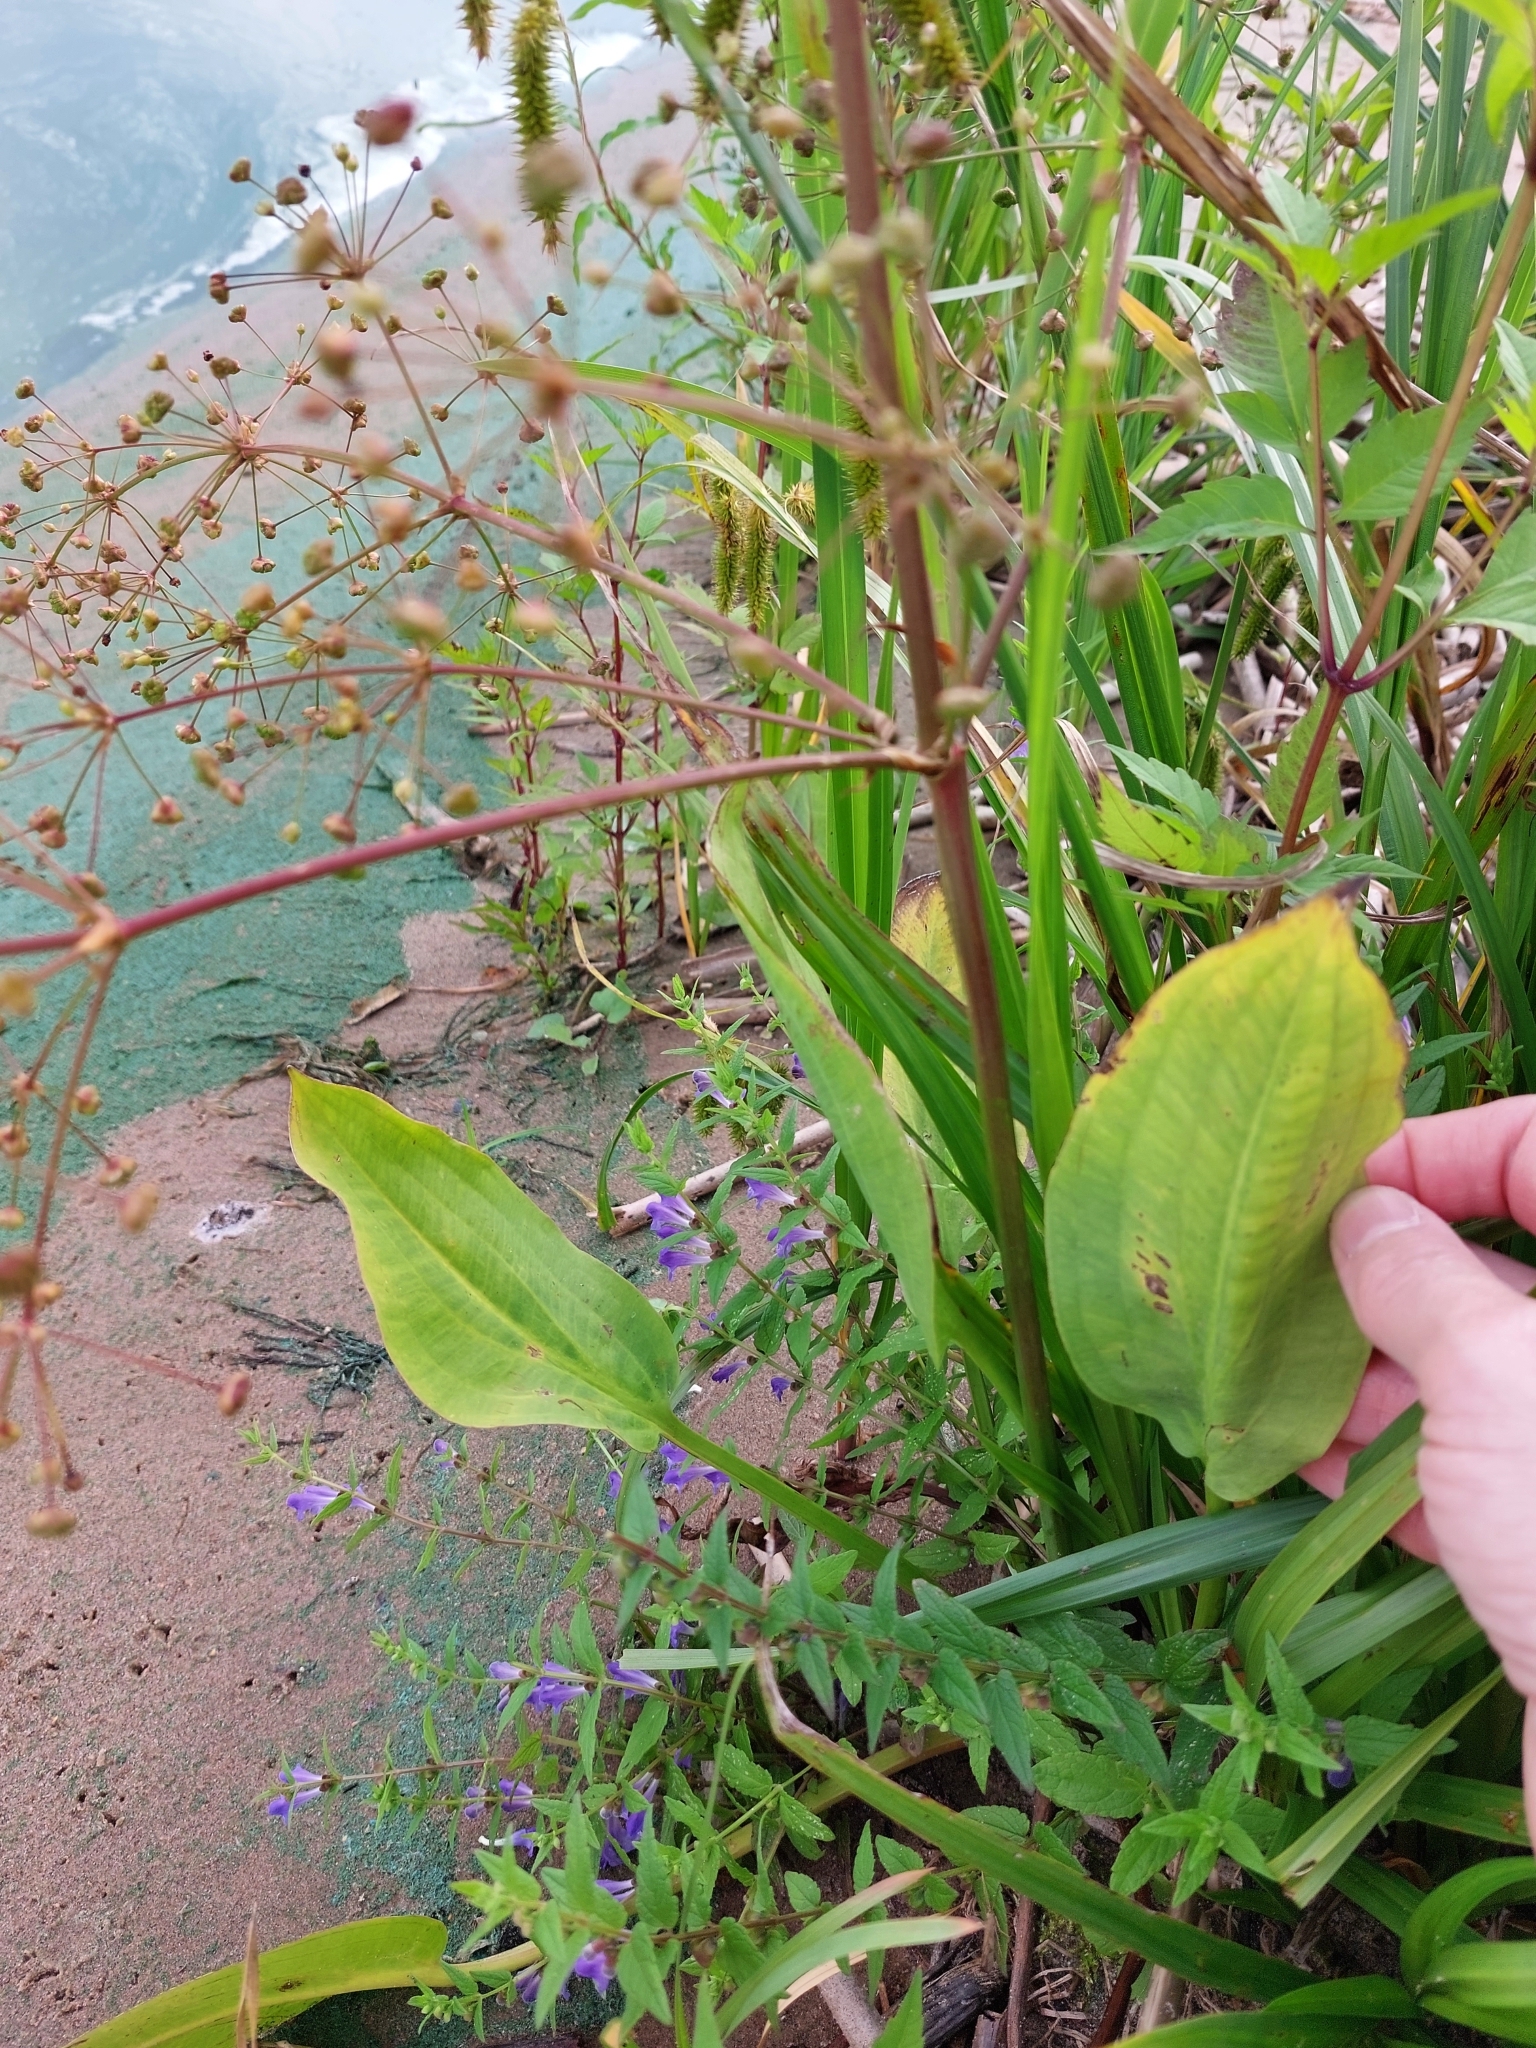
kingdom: Plantae
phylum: Tracheophyta
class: Liliopsida
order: Alismatales
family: Alismataceae
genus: Alisma
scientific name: Alisma plantago-aquatica
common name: Water-plantain
